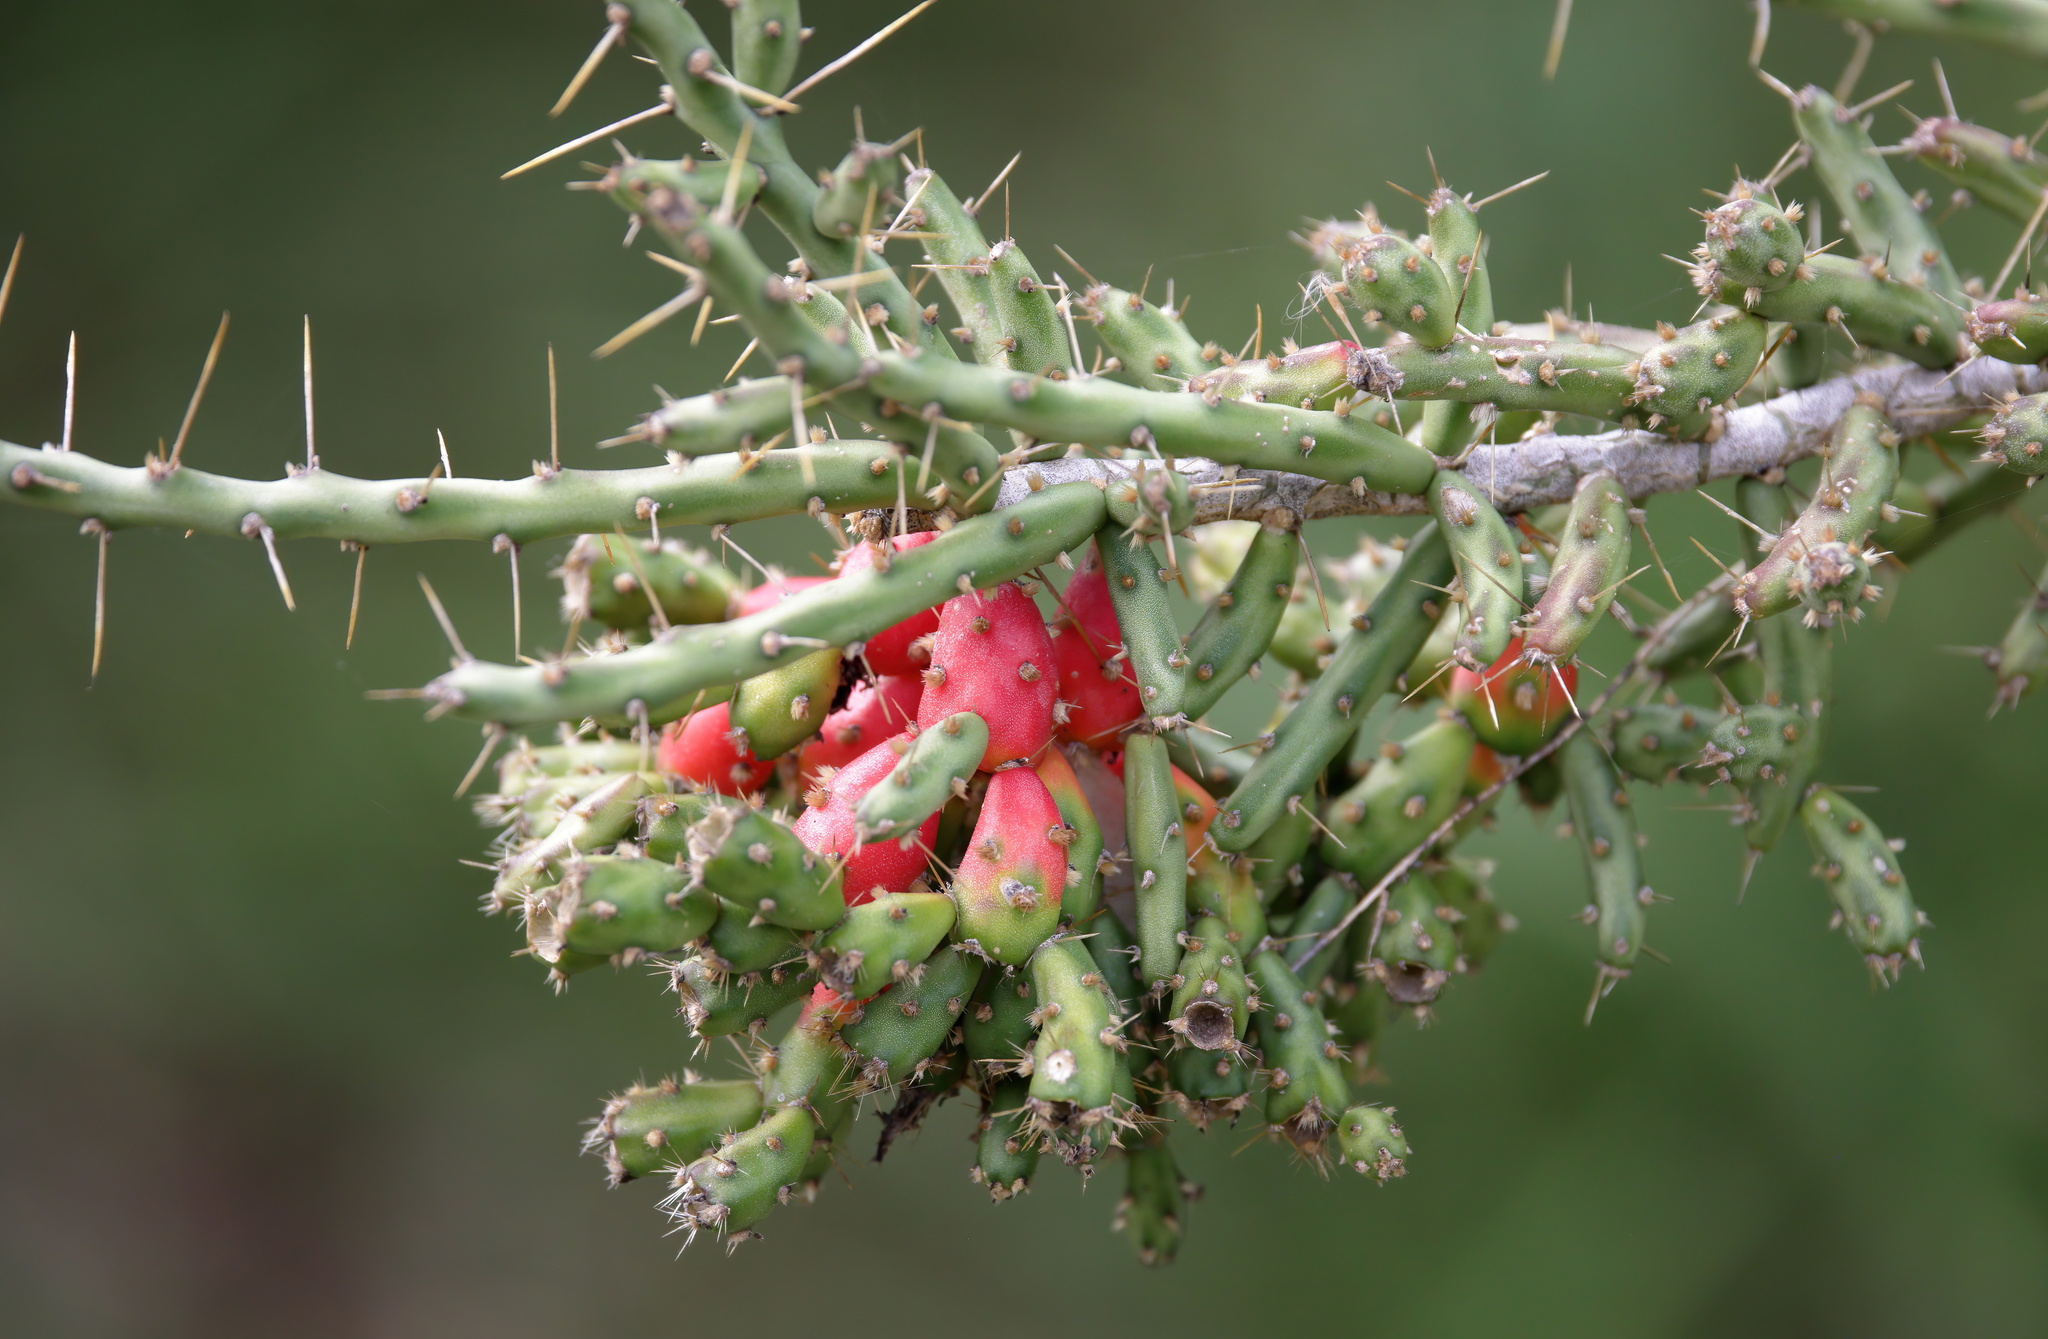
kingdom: Plantae
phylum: Tracheophyta
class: Magnoliopsida
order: Caryophyllales
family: Cactaceae
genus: Cylindropuntia
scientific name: Cylindropuntia leptocaulis
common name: Christmas cactus
